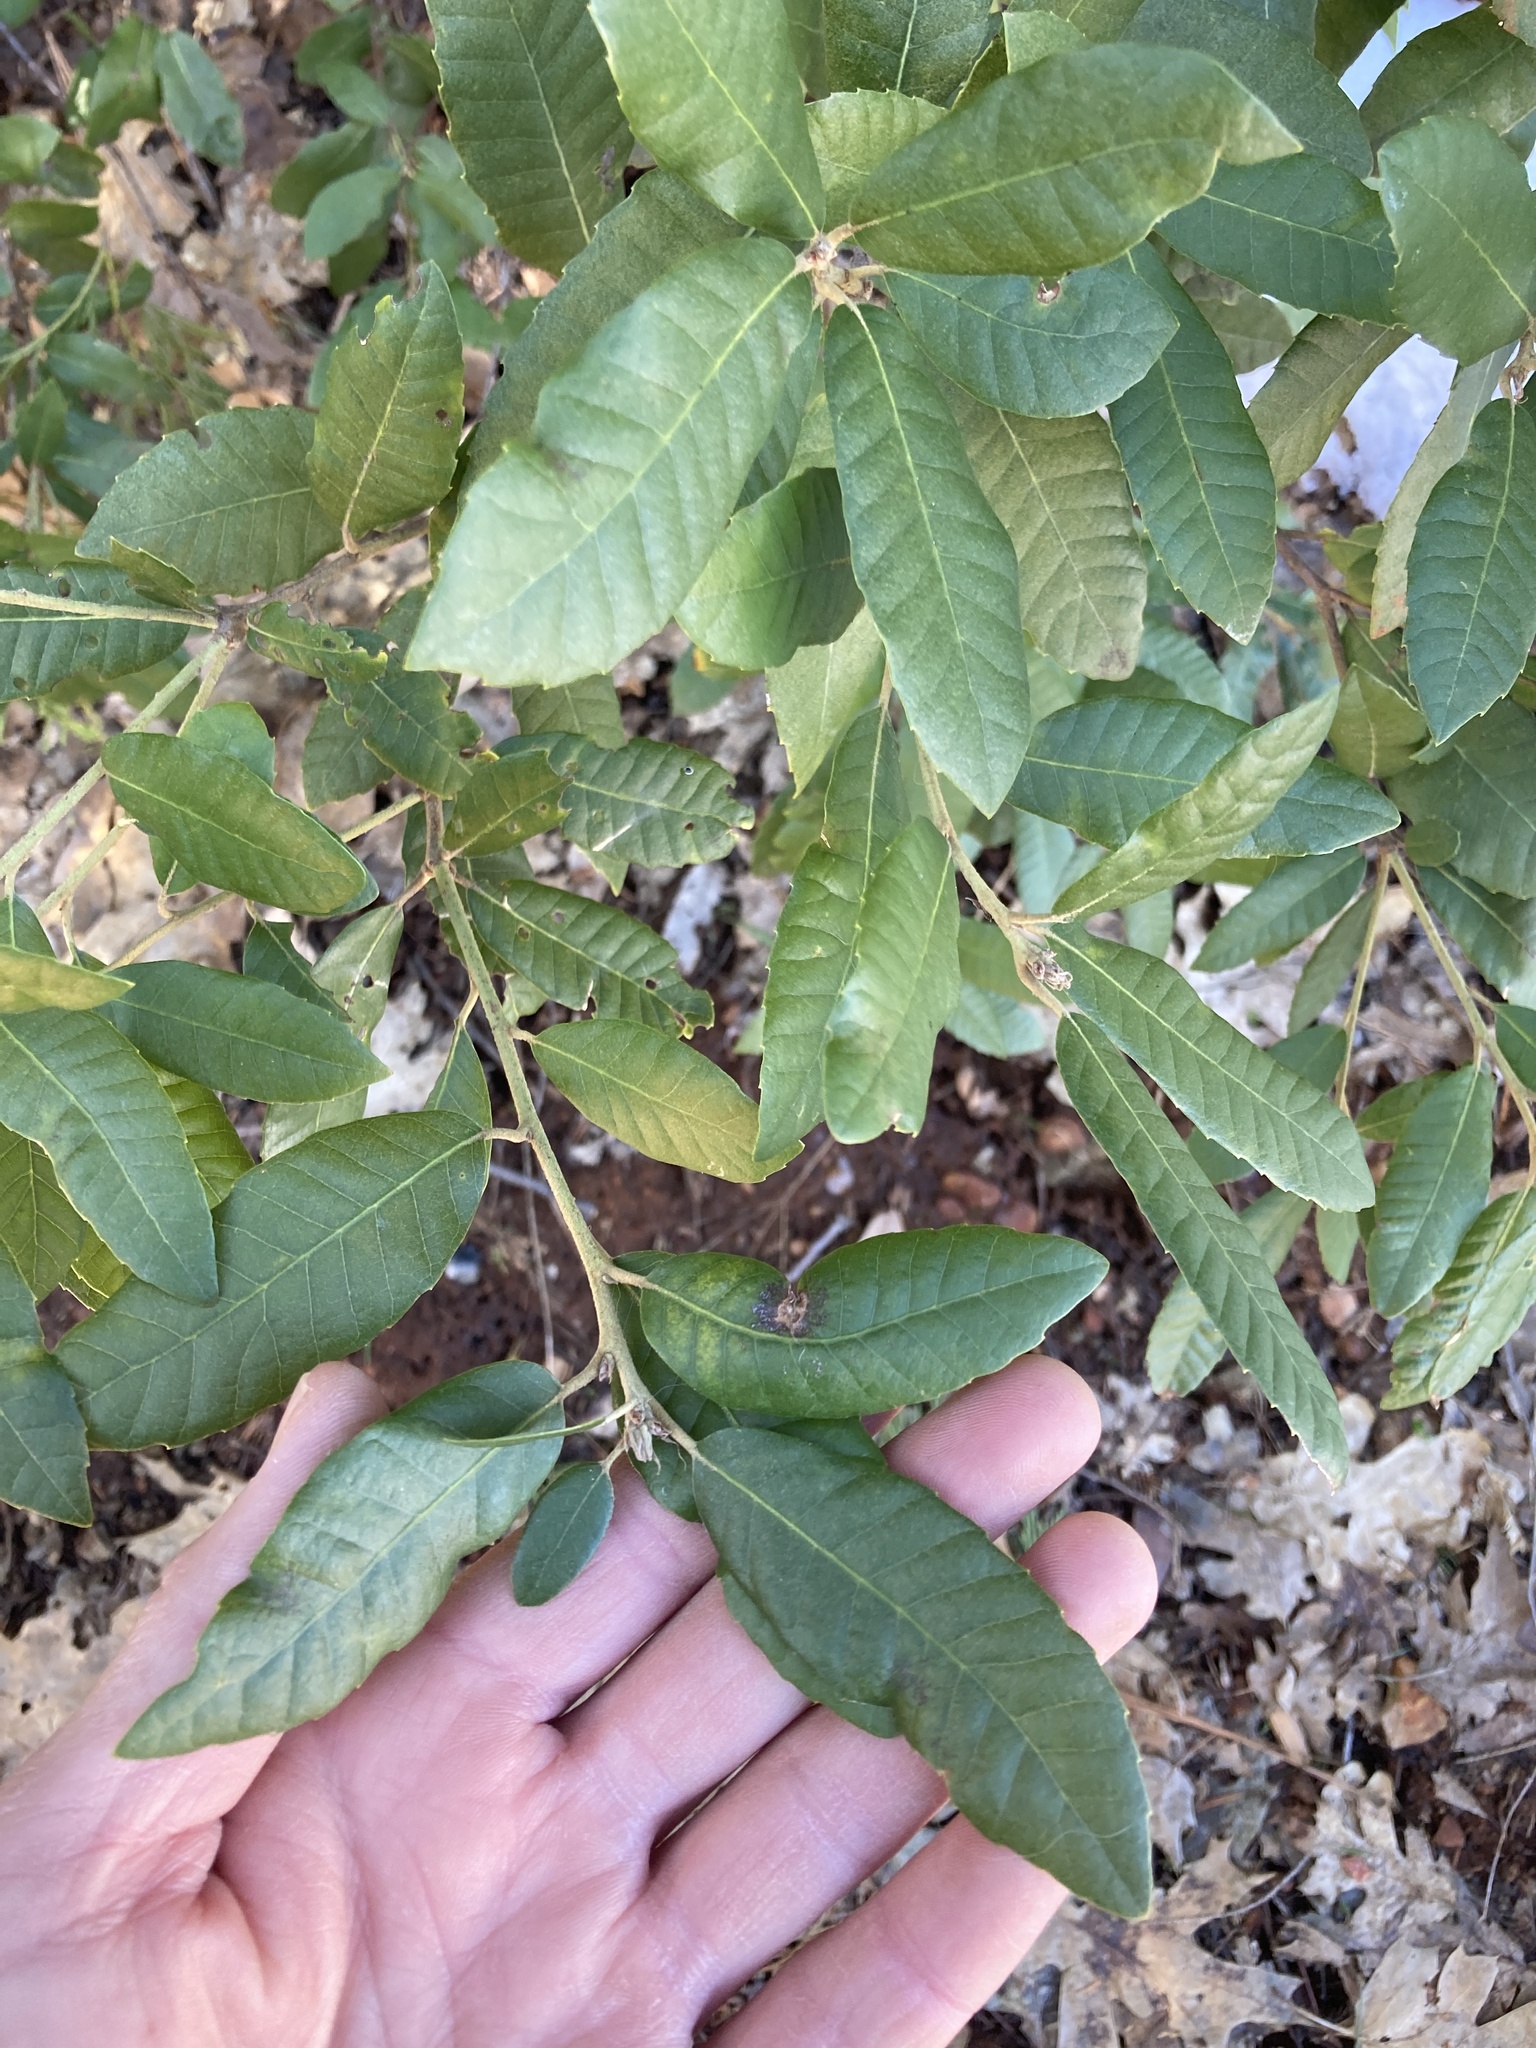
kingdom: Plantae
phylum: Tracheophyta
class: Magnoliopsida
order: Fagales
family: Fagaceae
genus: Notholithocarpus
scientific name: Notholithocarpus densiflorus
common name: Tan bark oak
